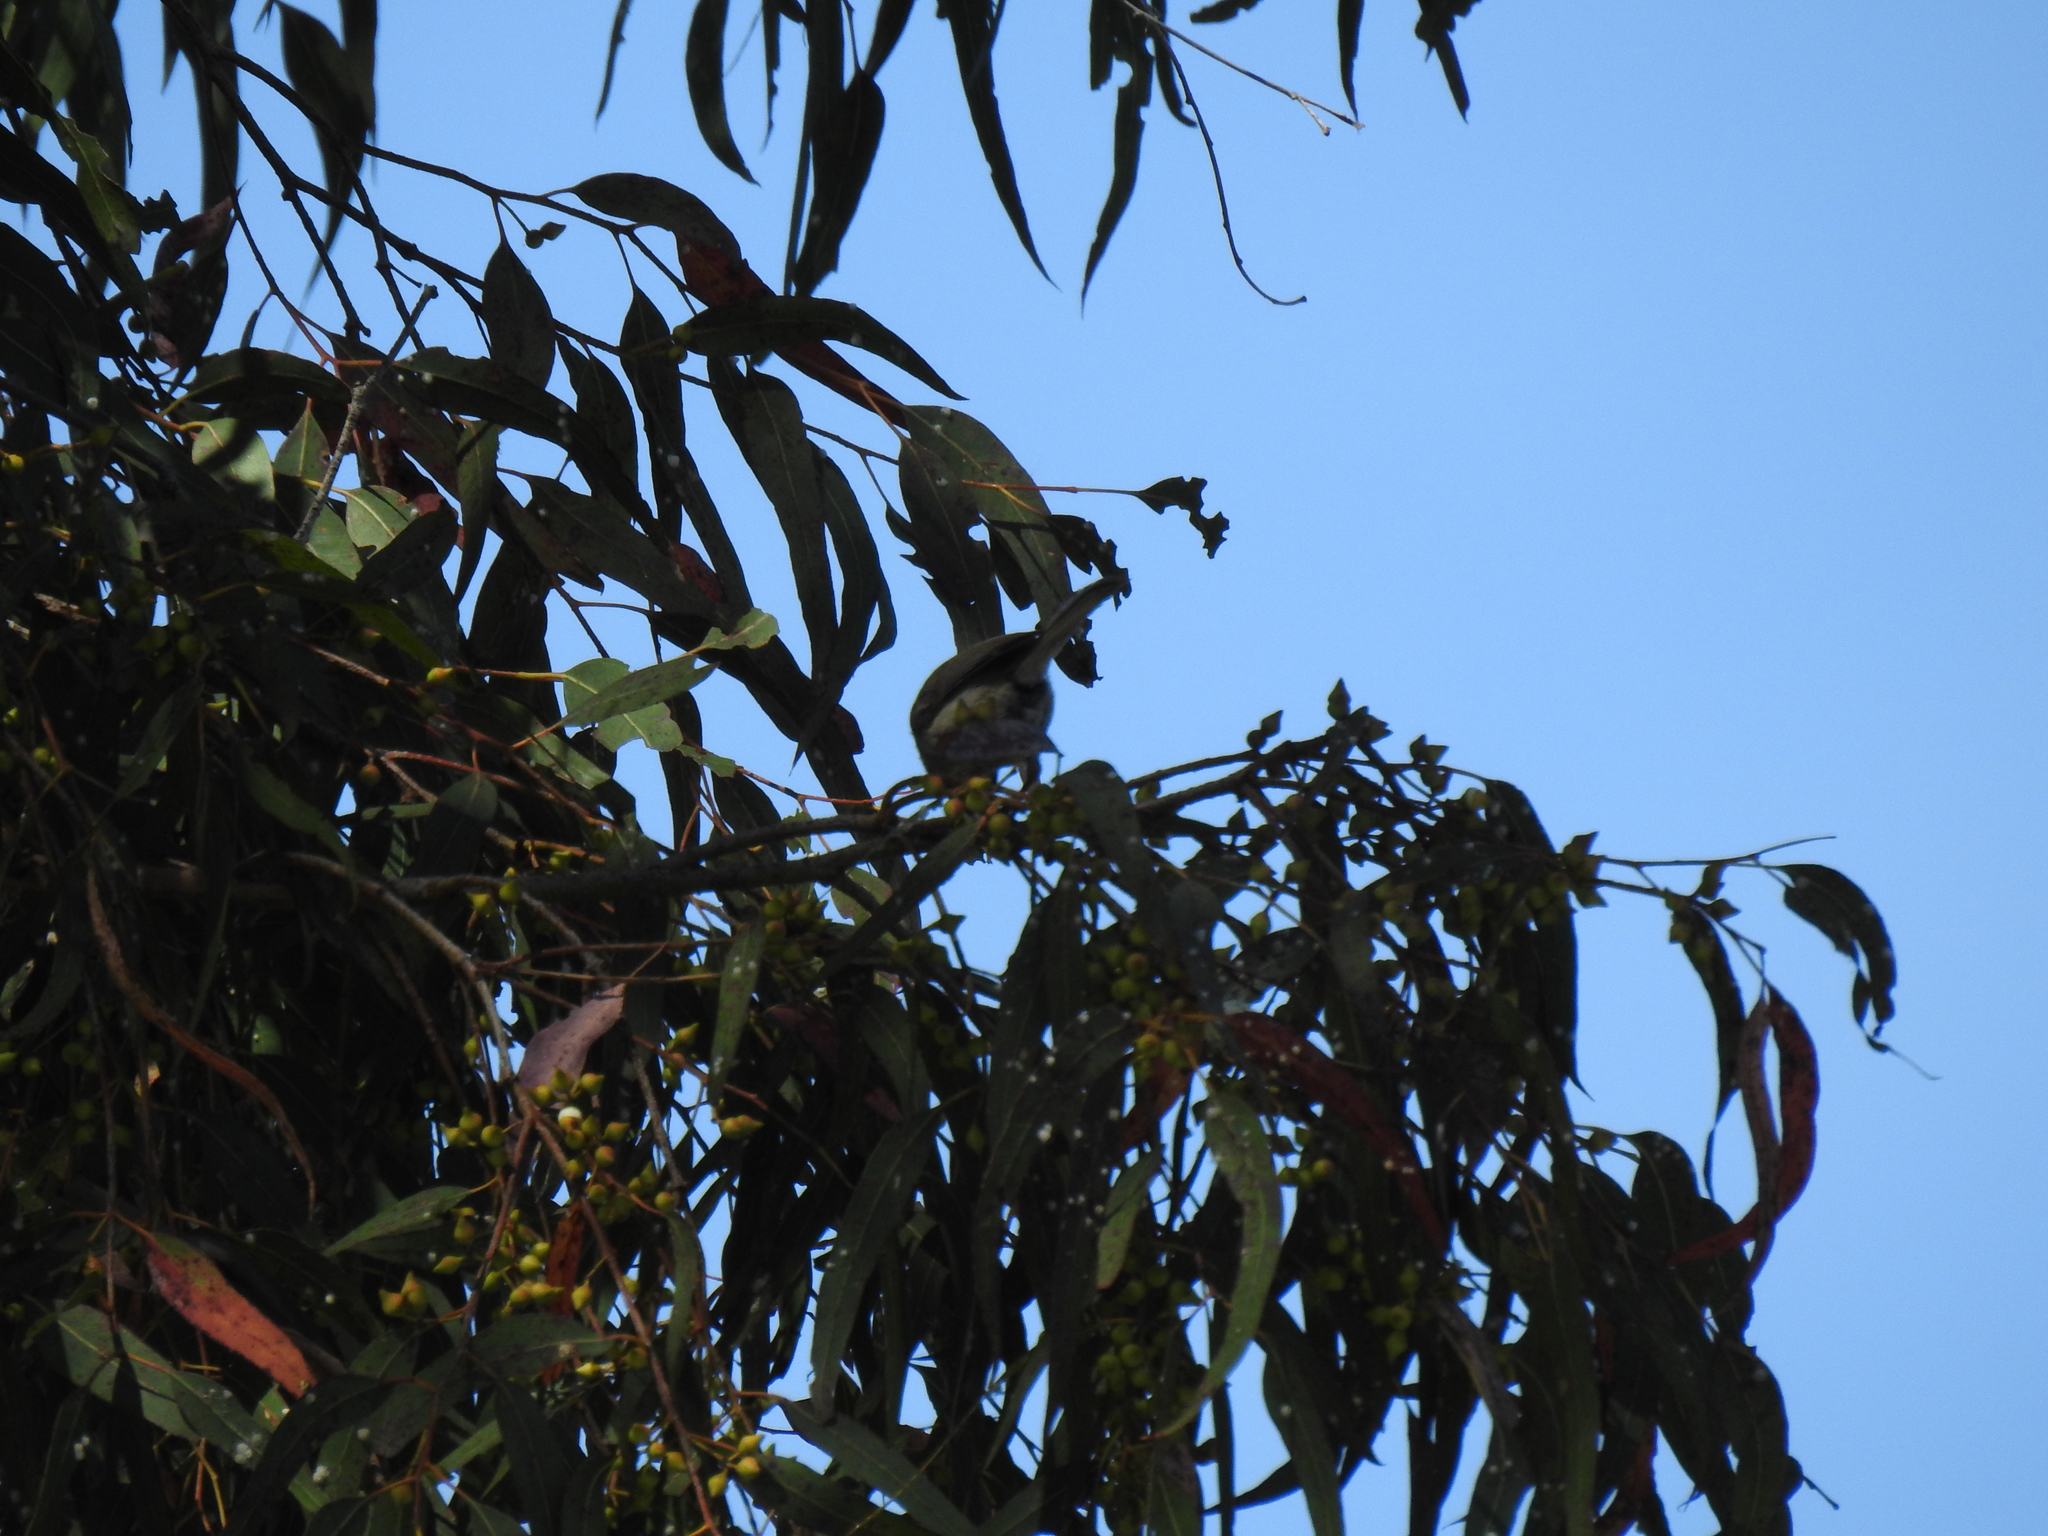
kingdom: Animalia
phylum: Chordata
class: Aves
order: Passeriformes
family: Paridae
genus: Baeolophus
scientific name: Baeolophus inornatus
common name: Oak titmouse
